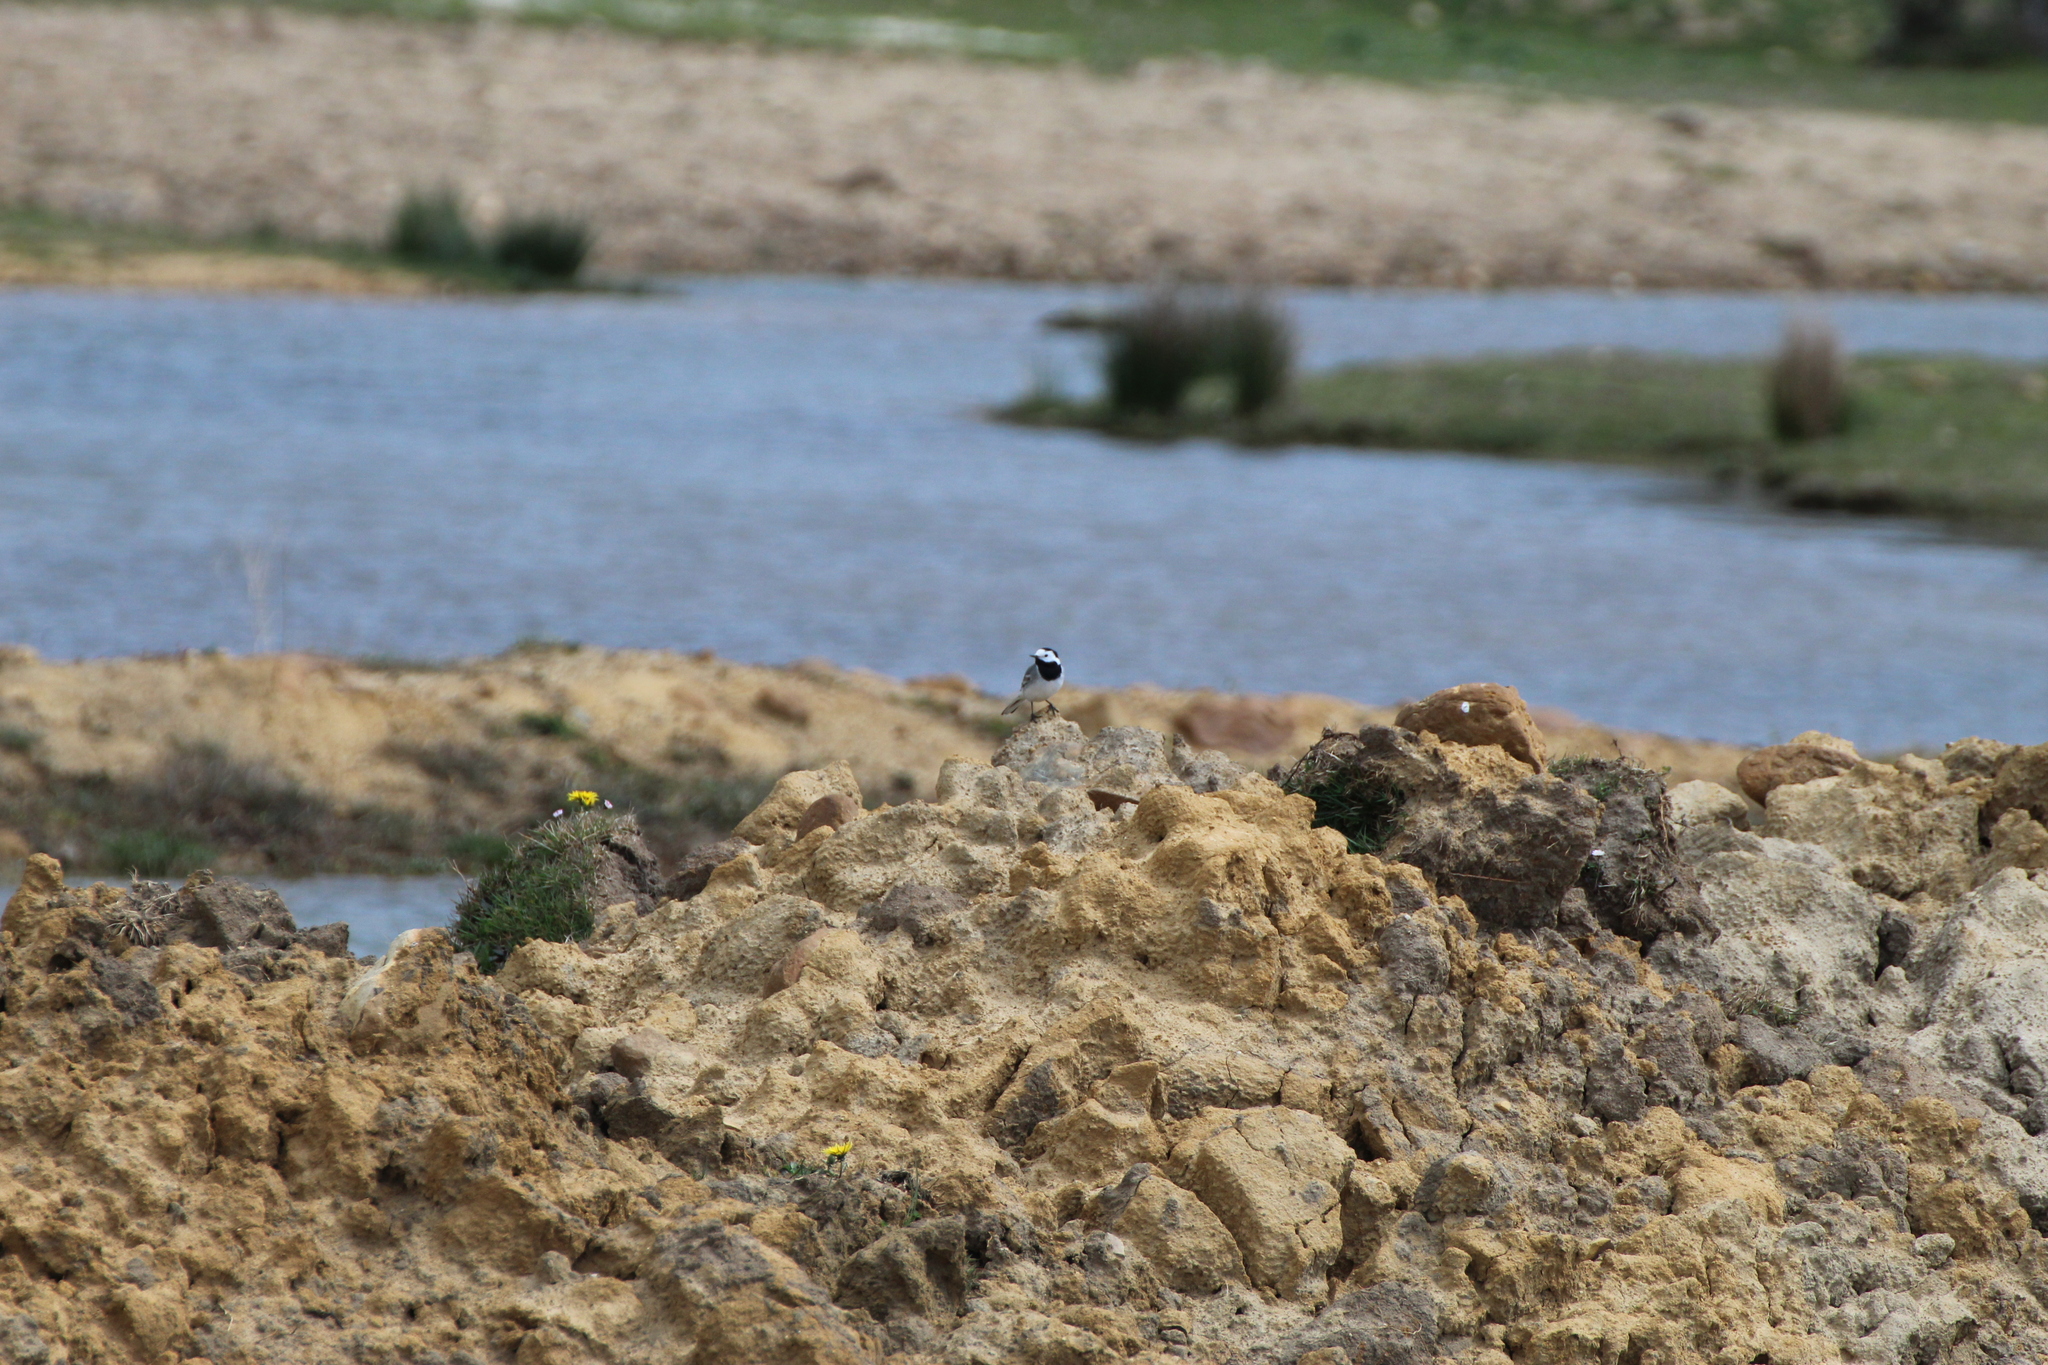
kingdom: Animalia
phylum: Chordata
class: Aves
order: Passeriformes
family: Motacillidae
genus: Motacilla
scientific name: Motacilla alba
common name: White wagtail
